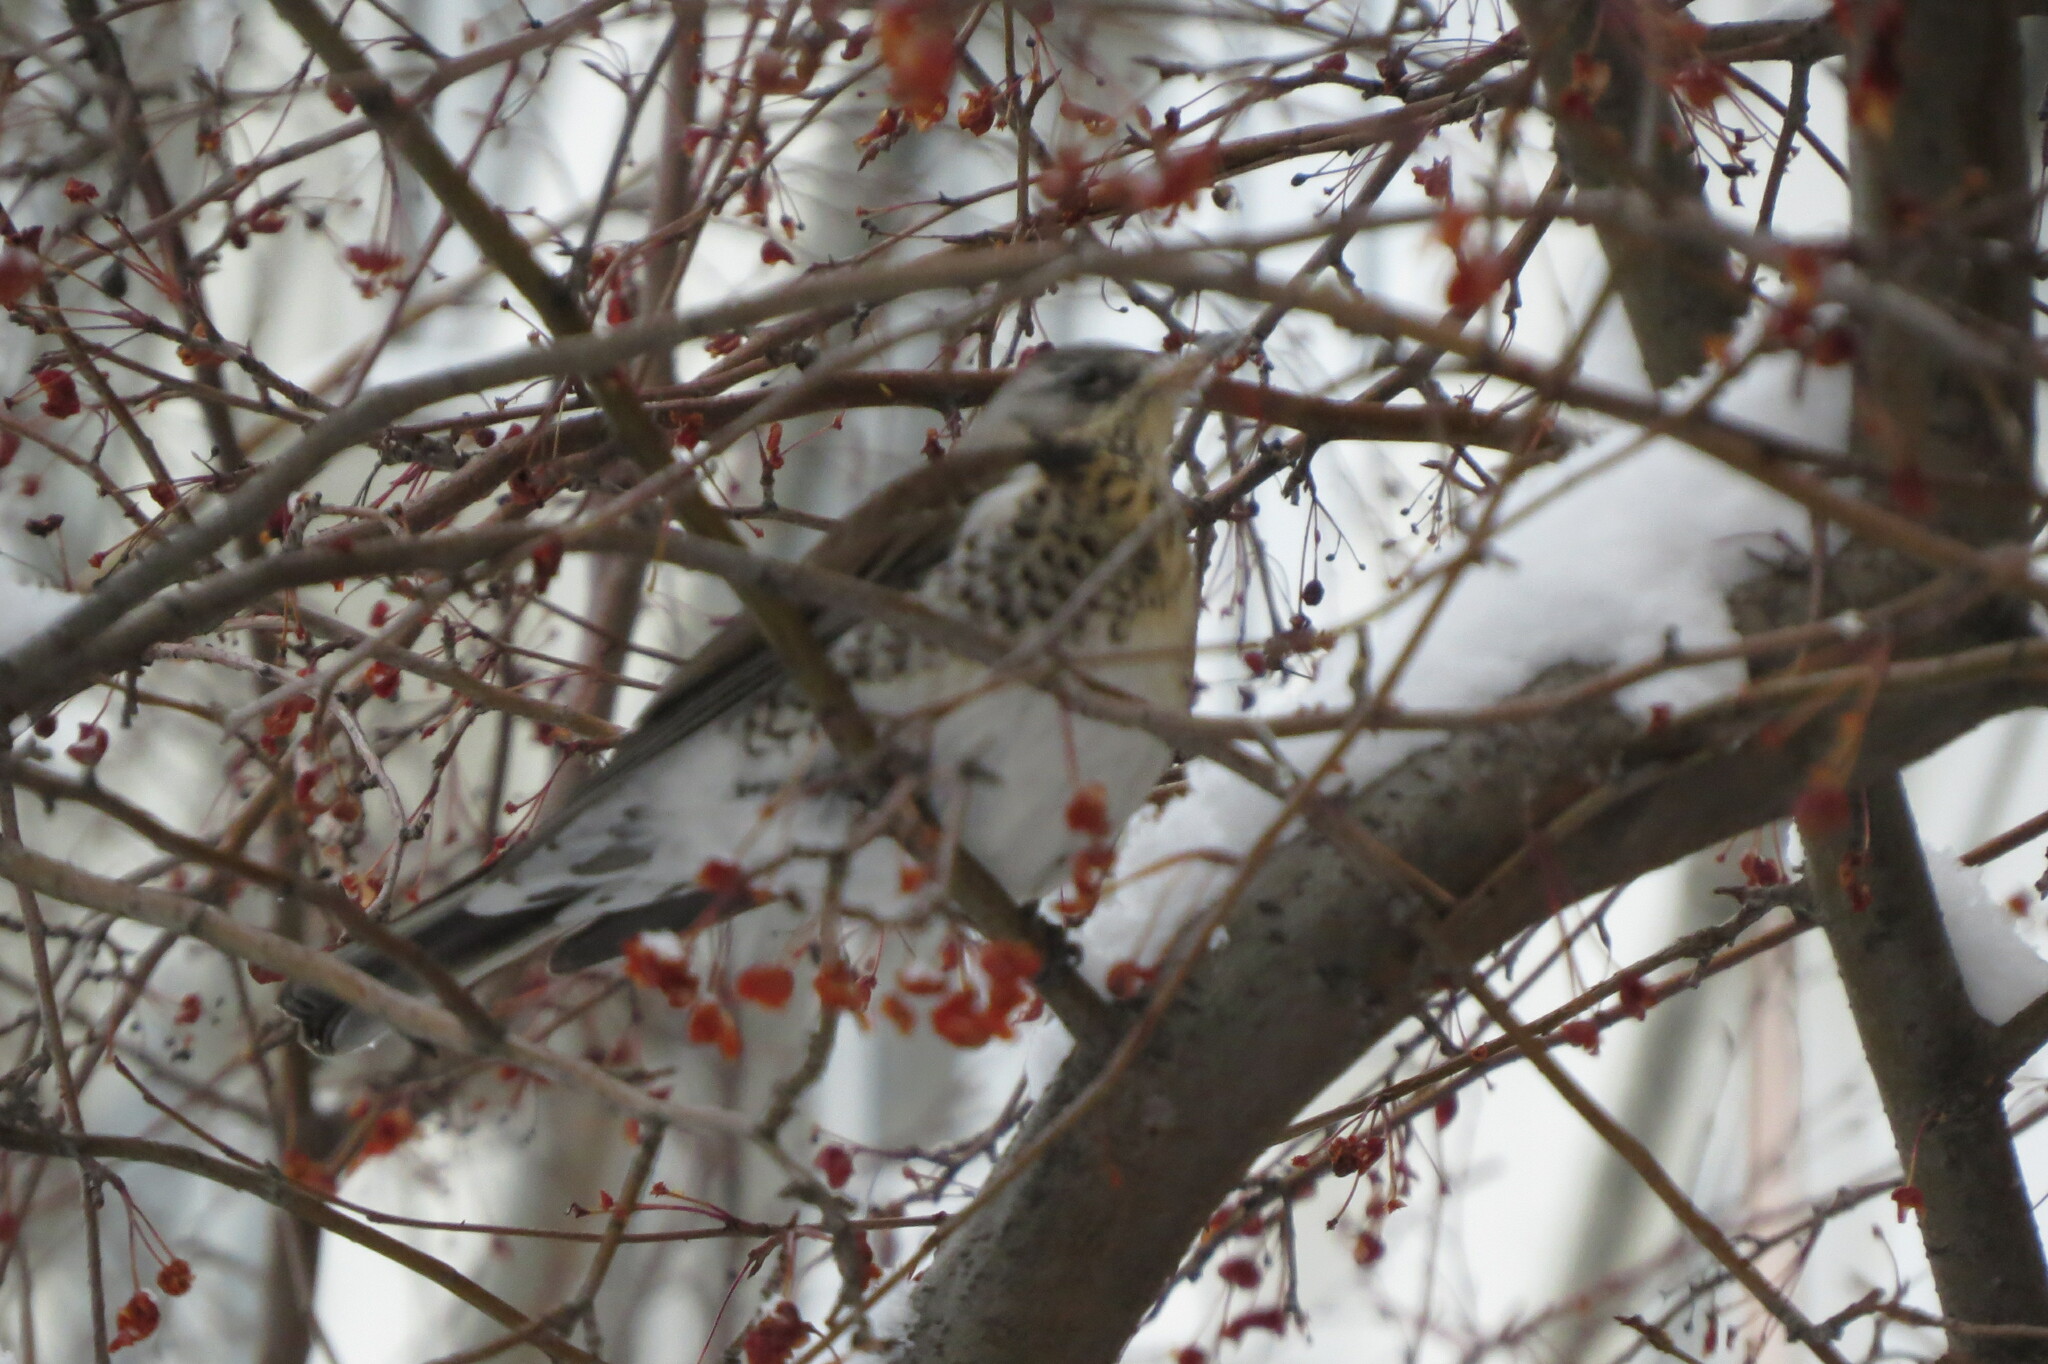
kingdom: Animalia
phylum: Chordata
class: Aves
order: Passeriformes
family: Turdidae
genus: Turdus
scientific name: Turdus pilaris
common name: Fieldfare
